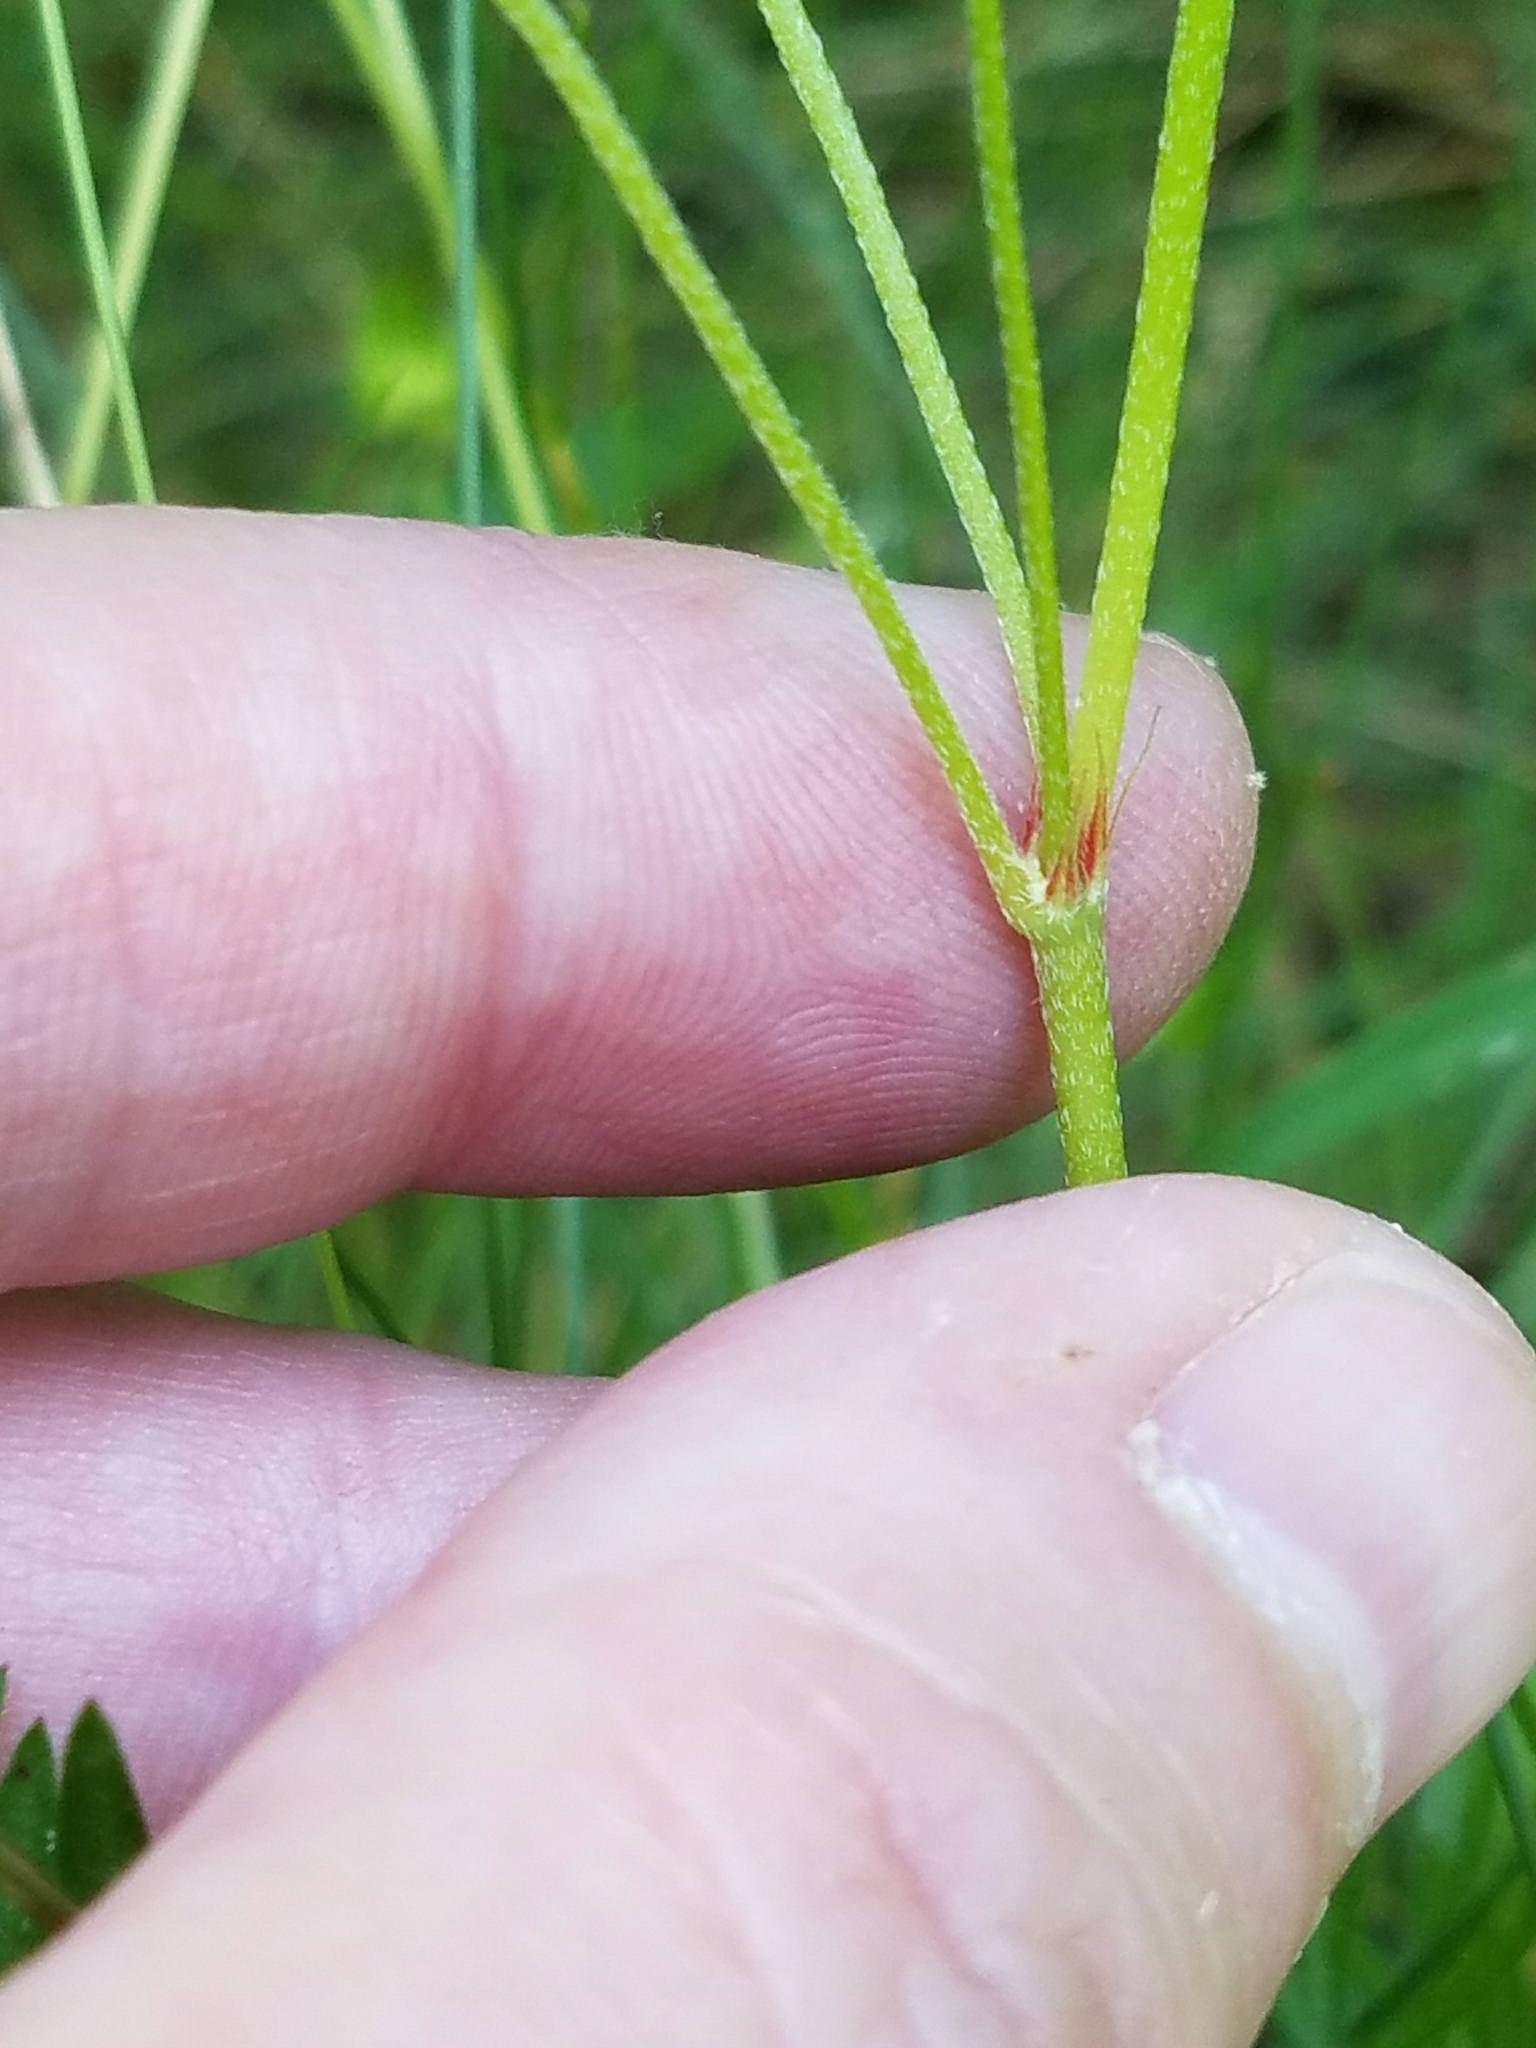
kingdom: Plantae
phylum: Tracheophyta
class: Magnoliopsida
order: Geraniales
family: Geraniaceae
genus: Geranium
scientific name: Geranium columbinum
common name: Long-stalked crane's-bill
